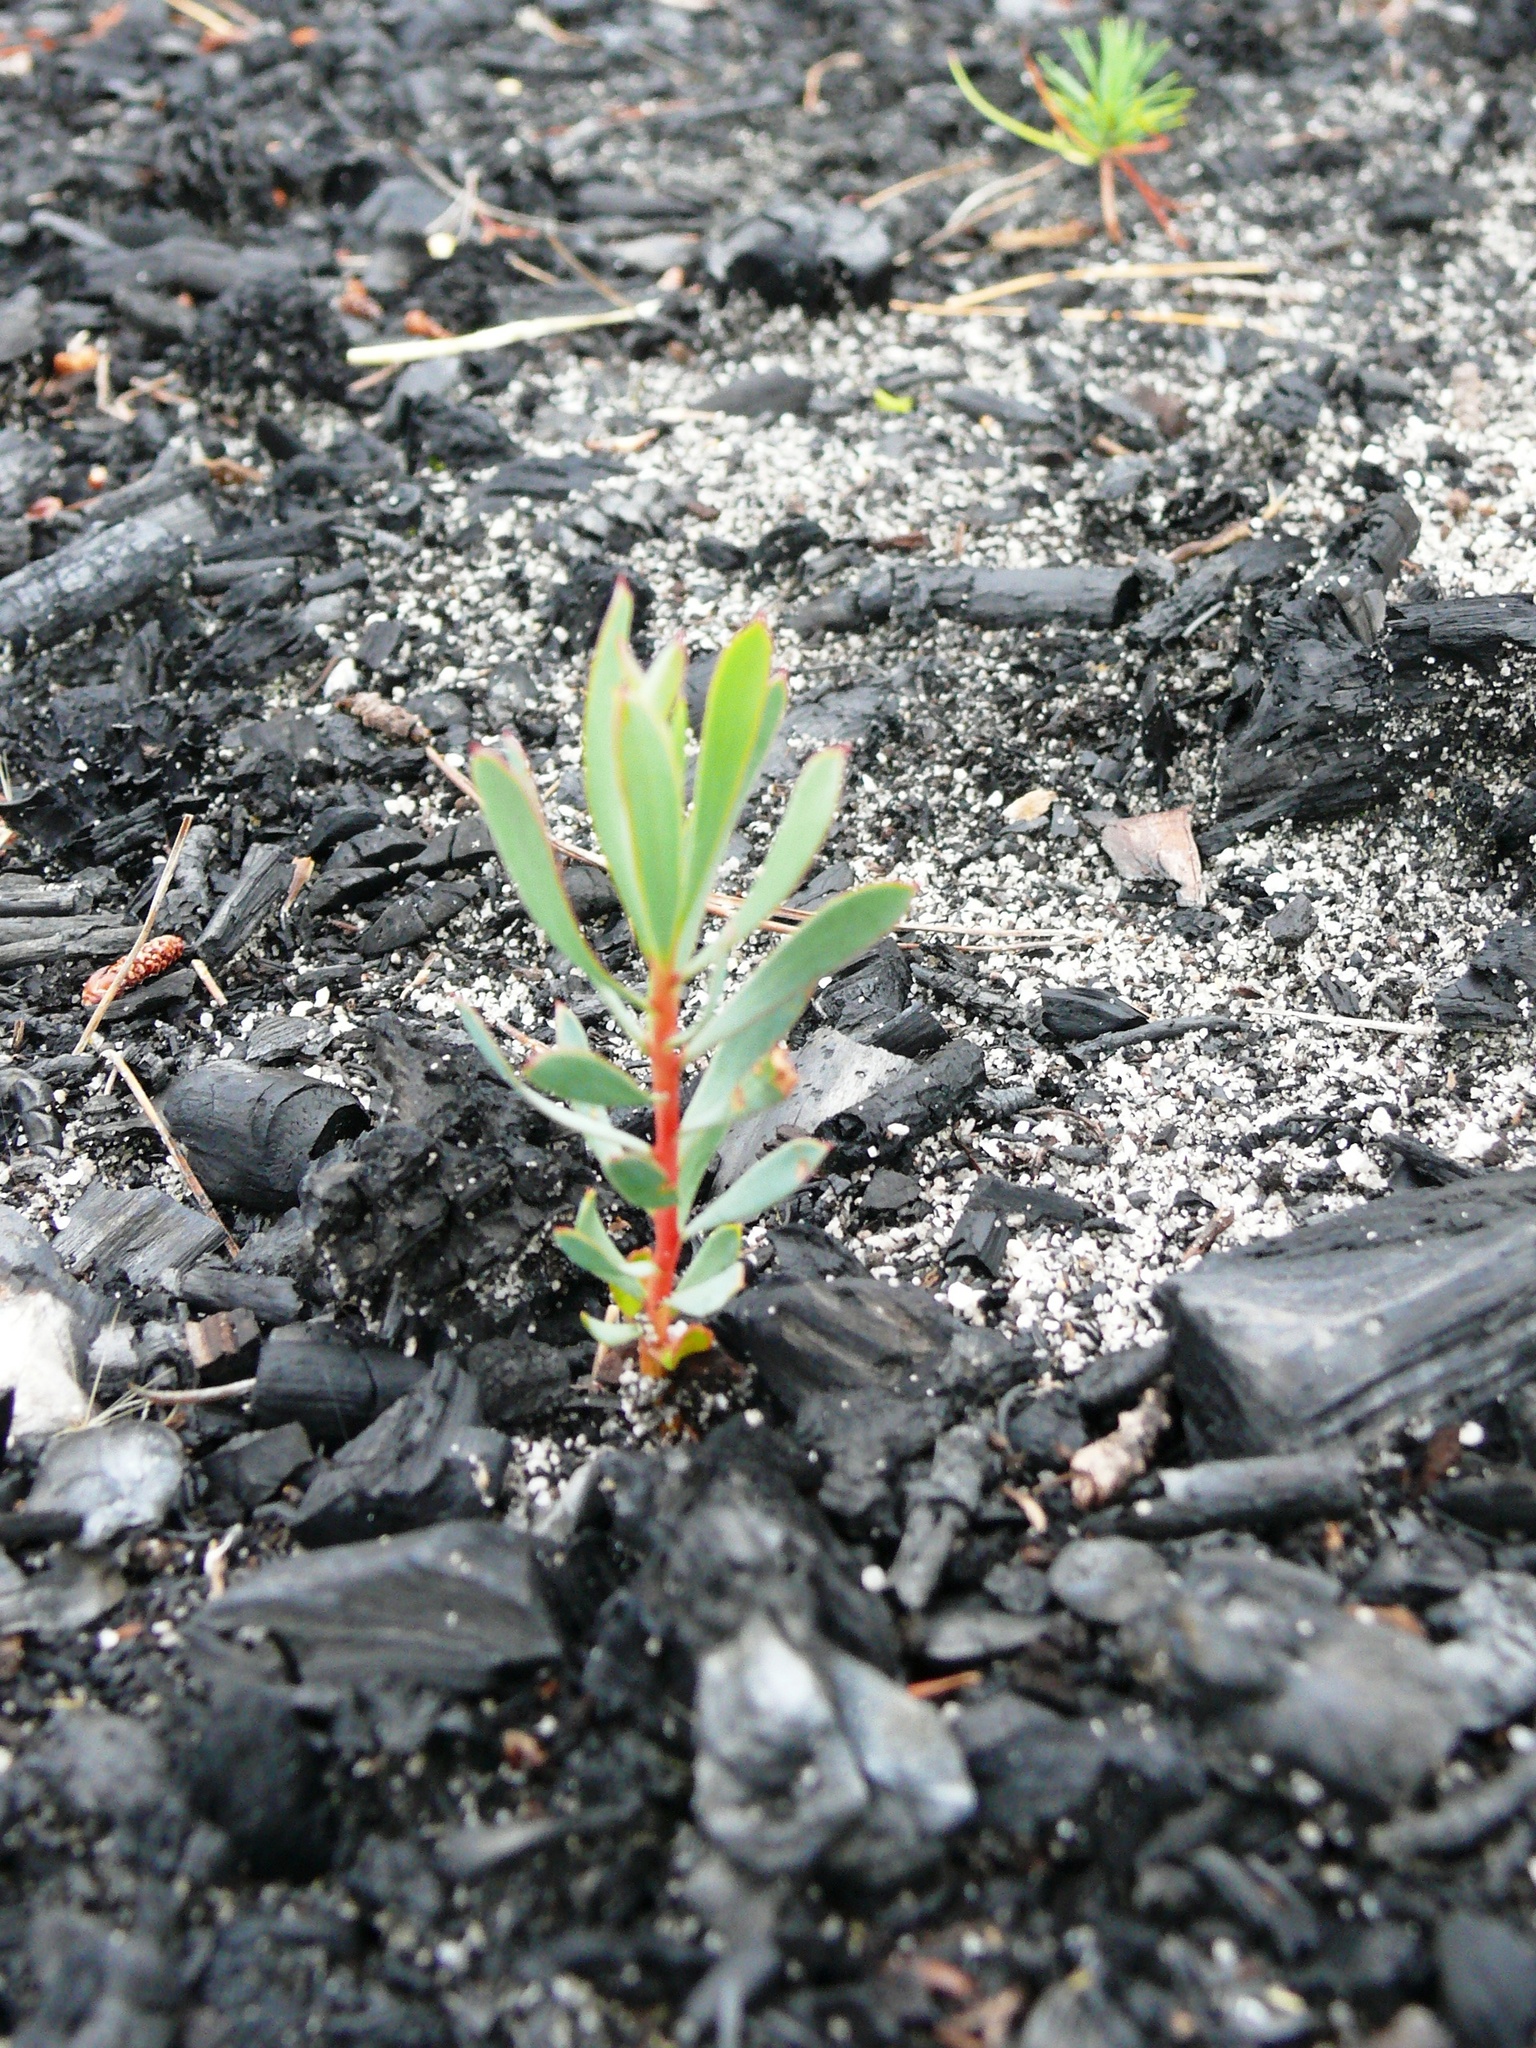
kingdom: Plantae
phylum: Tracheophyta
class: Magnoliopsida
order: Proteales
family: Proteaceae
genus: Protea
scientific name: Protea repens
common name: Sugarbush
